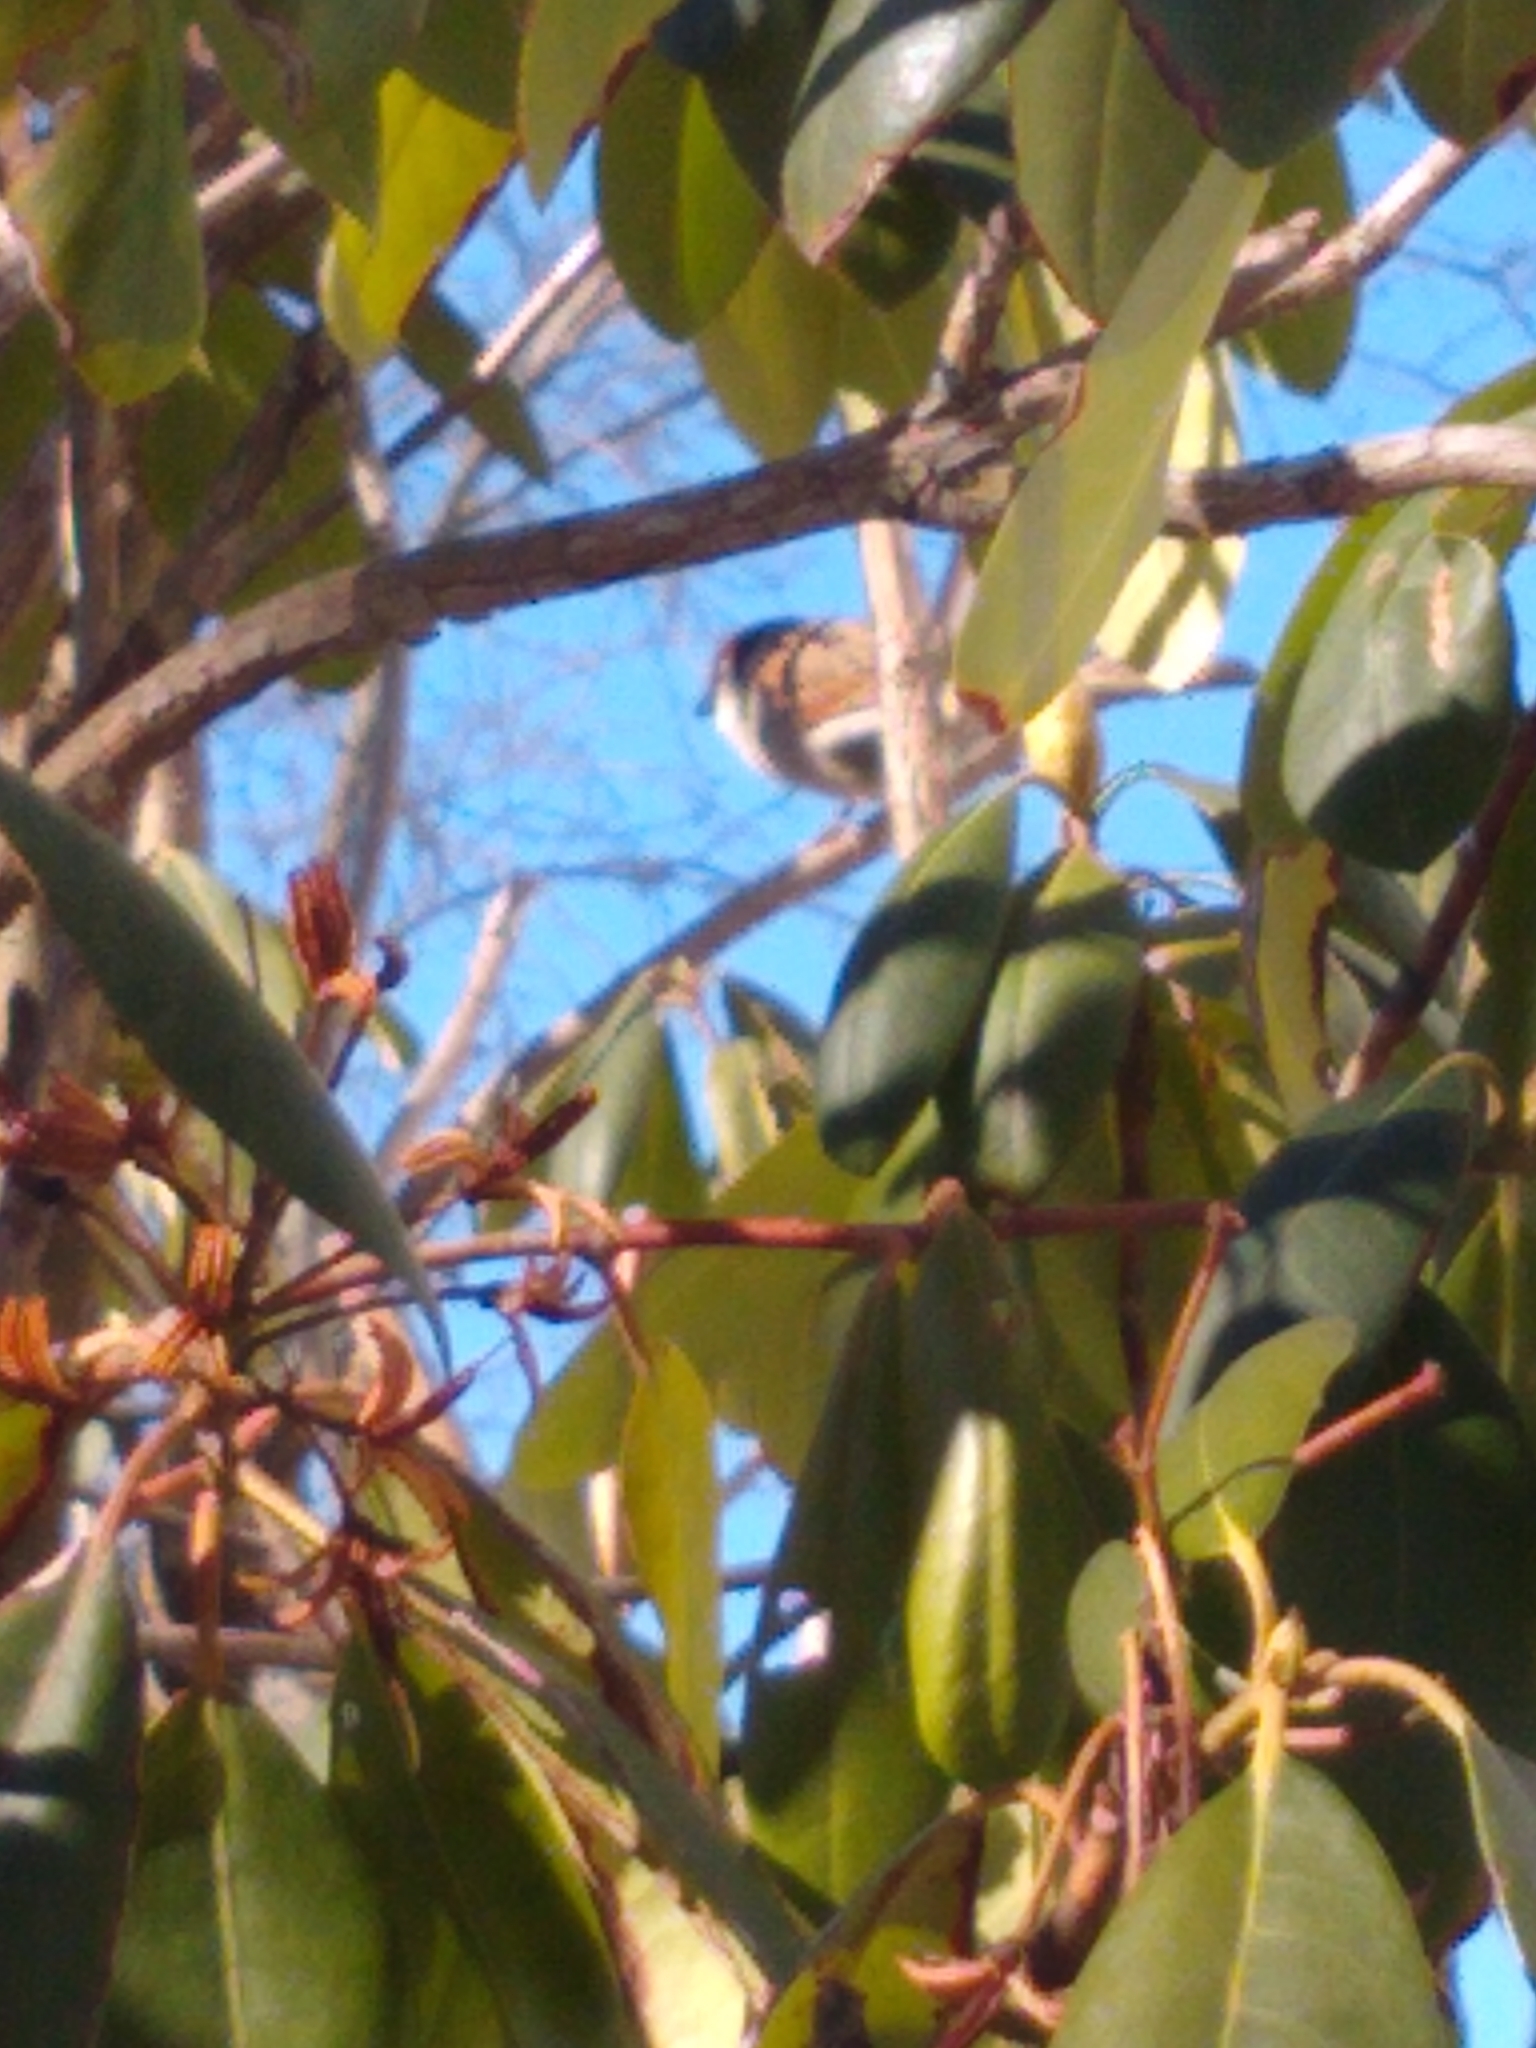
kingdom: Animalia
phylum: Chordata
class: Aves
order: Passeriformes
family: Passeridae
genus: Passer
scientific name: Passer domesticus
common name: House sparrow
